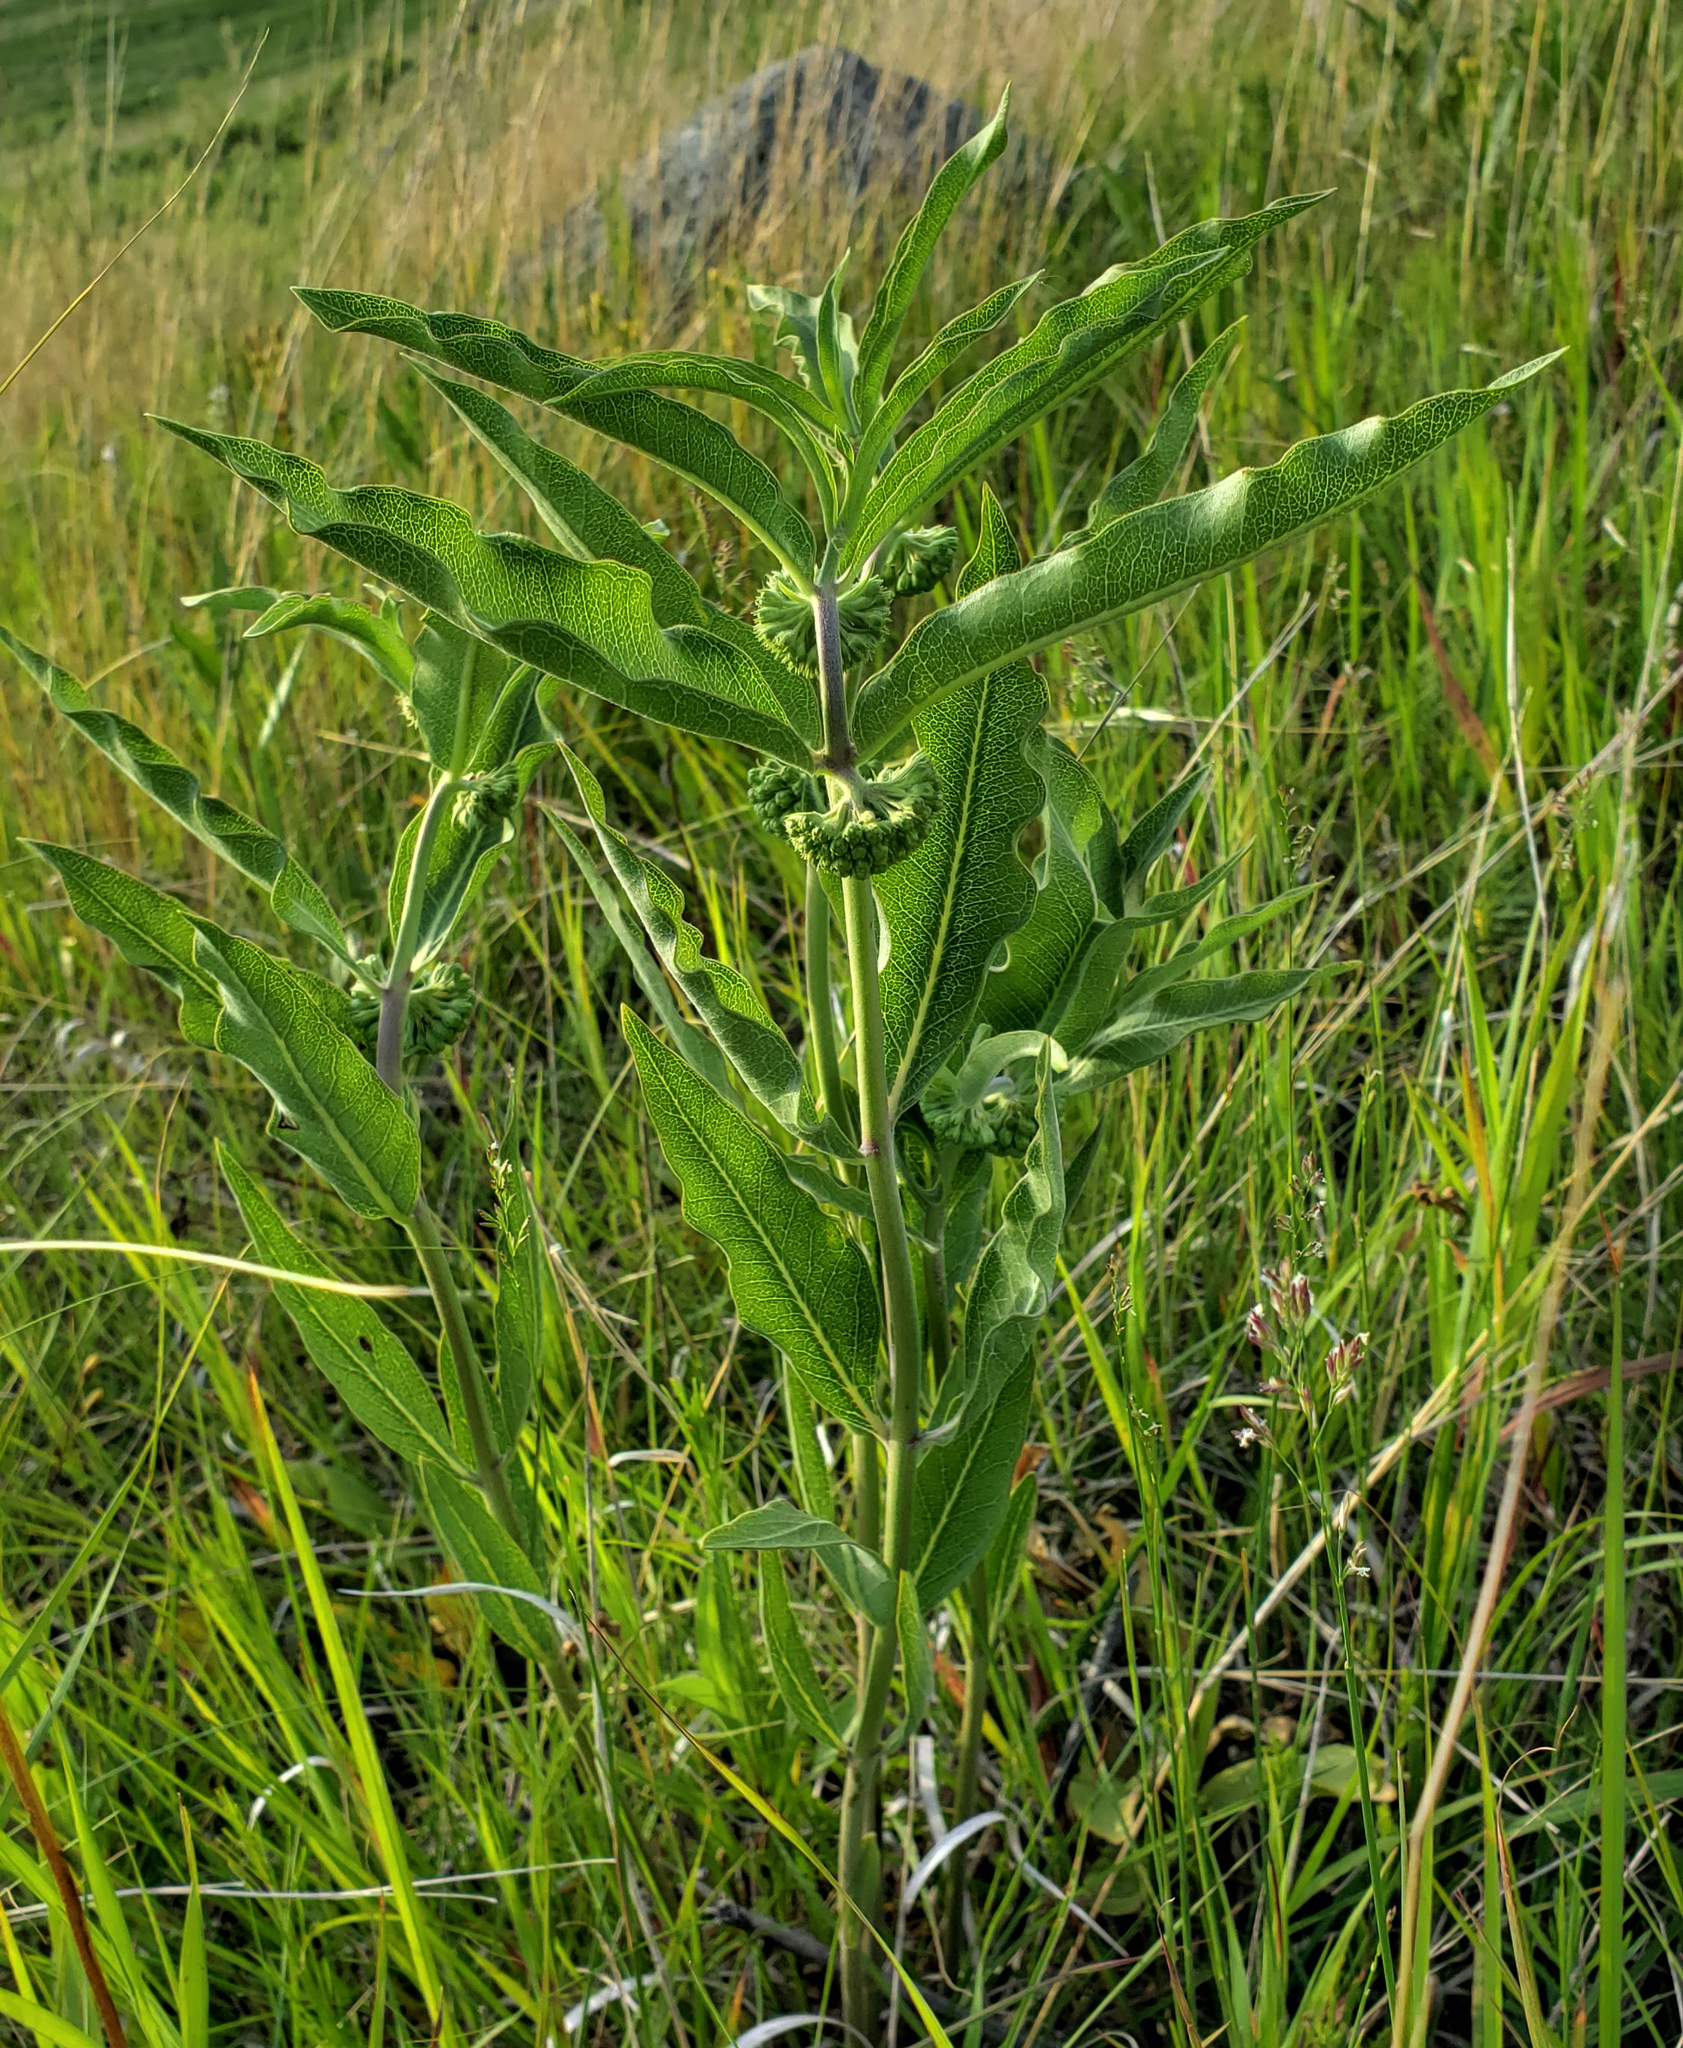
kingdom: Plantae
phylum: Tracheophyta
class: Magnoliopsida
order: Gentianales
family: Apocynaceae
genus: Asclepias
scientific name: Asclepias viridiflora
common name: Green comet milkweed
